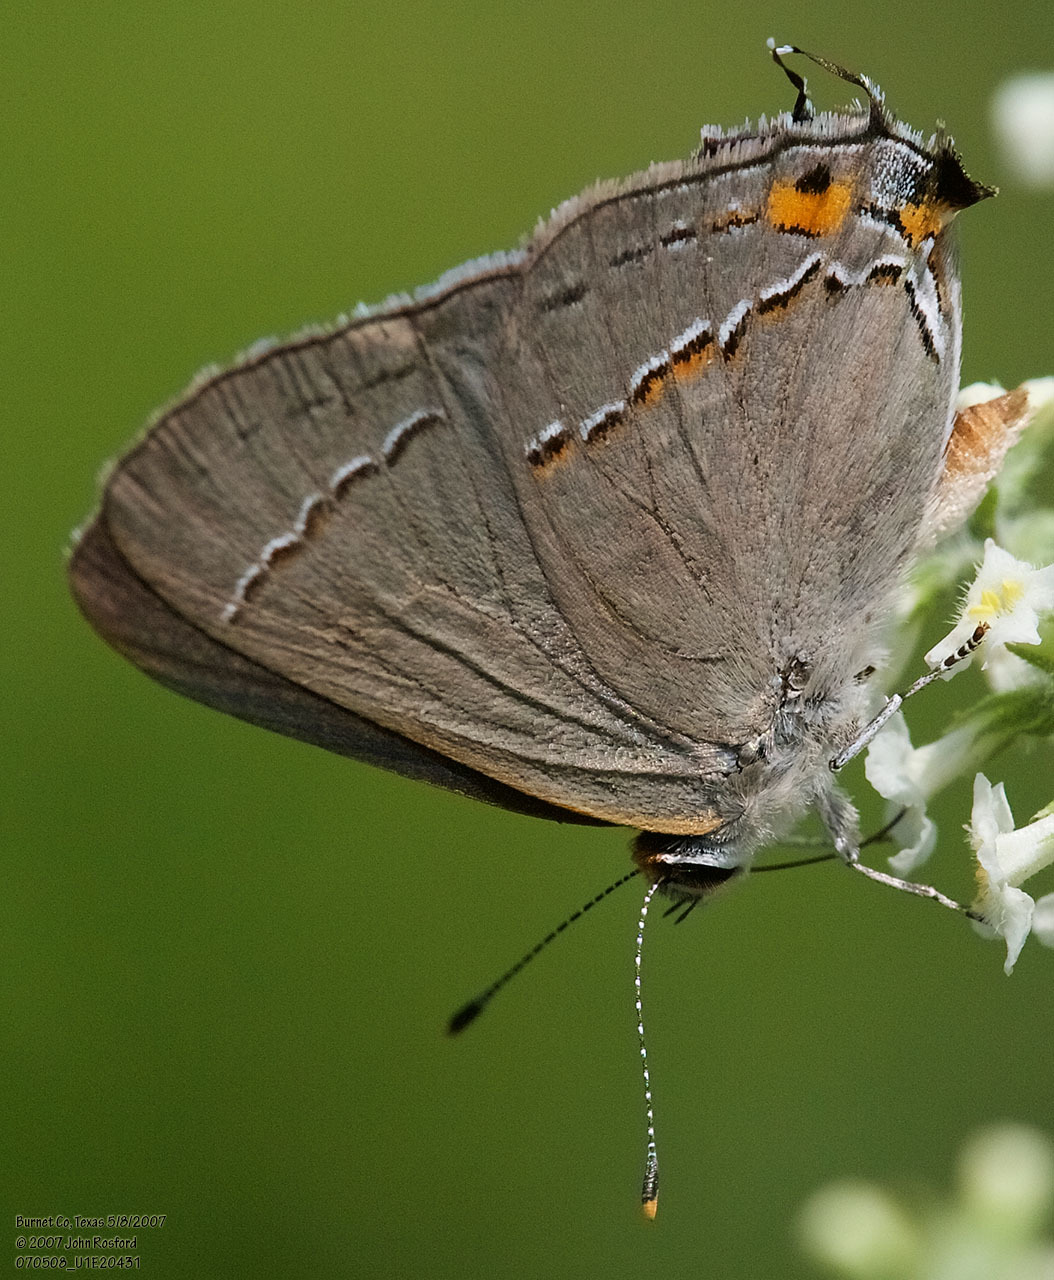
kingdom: Animalia
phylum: Arthropoda
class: Insecta
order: Lepidoptera
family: Lycaenidae
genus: Strymon
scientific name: Strymon melinus
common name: Gray hairstreak
